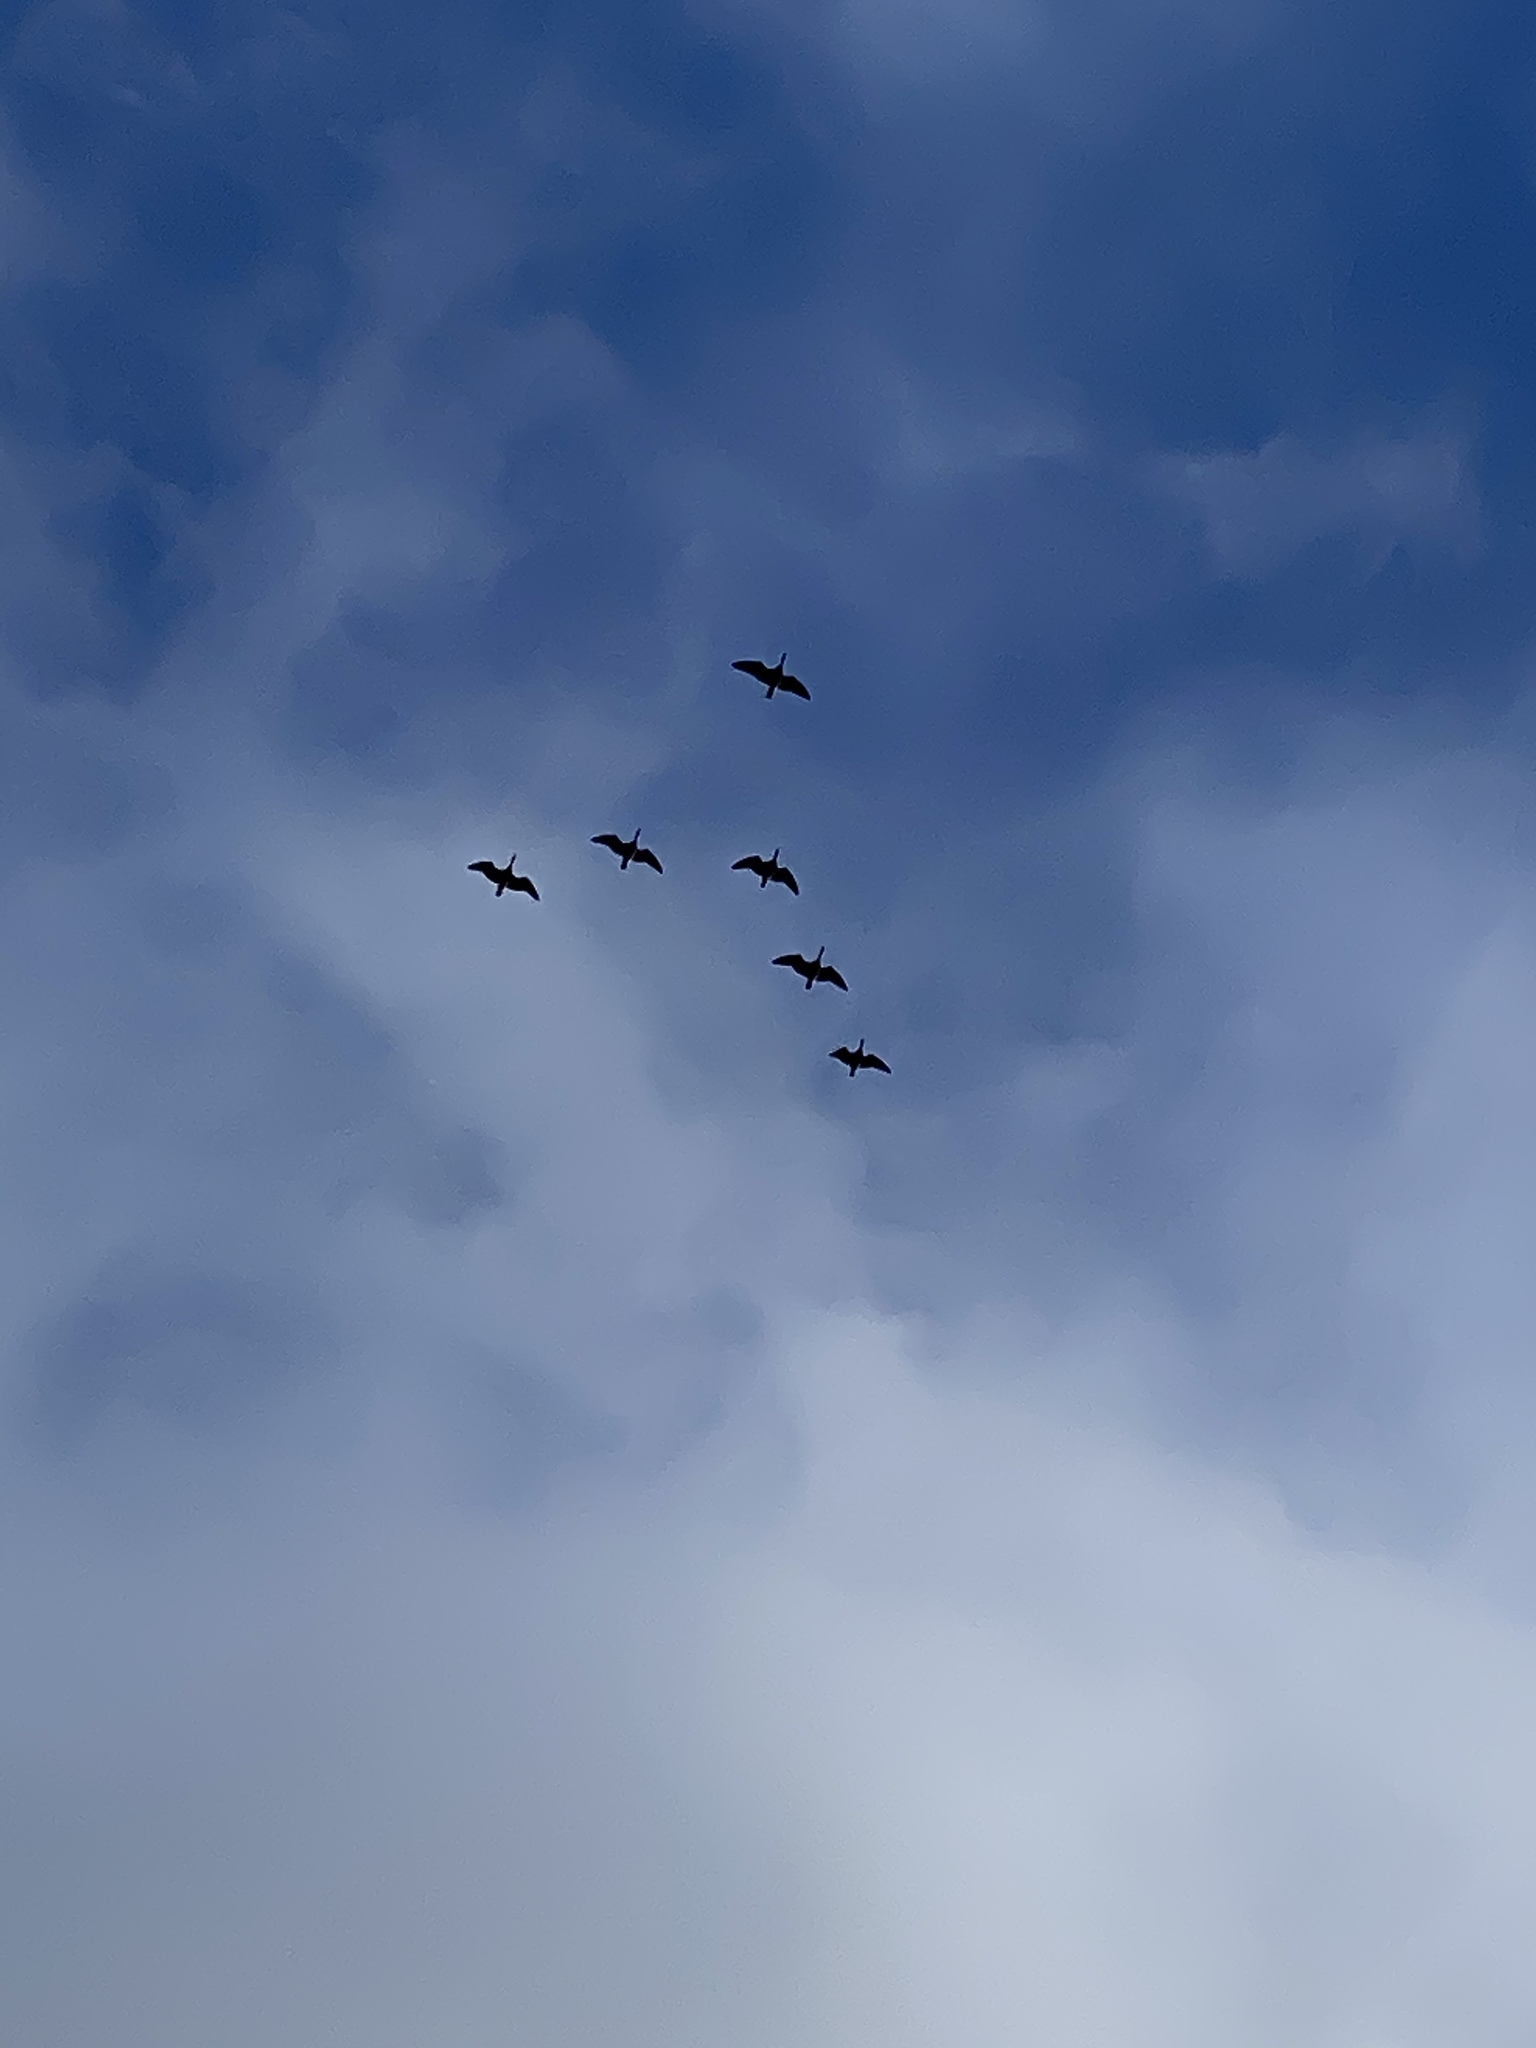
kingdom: Animalia
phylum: Chordata
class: Aves
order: Anseriformes
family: Anatidae
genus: Branta
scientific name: Branta canadensis
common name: Canada goose
